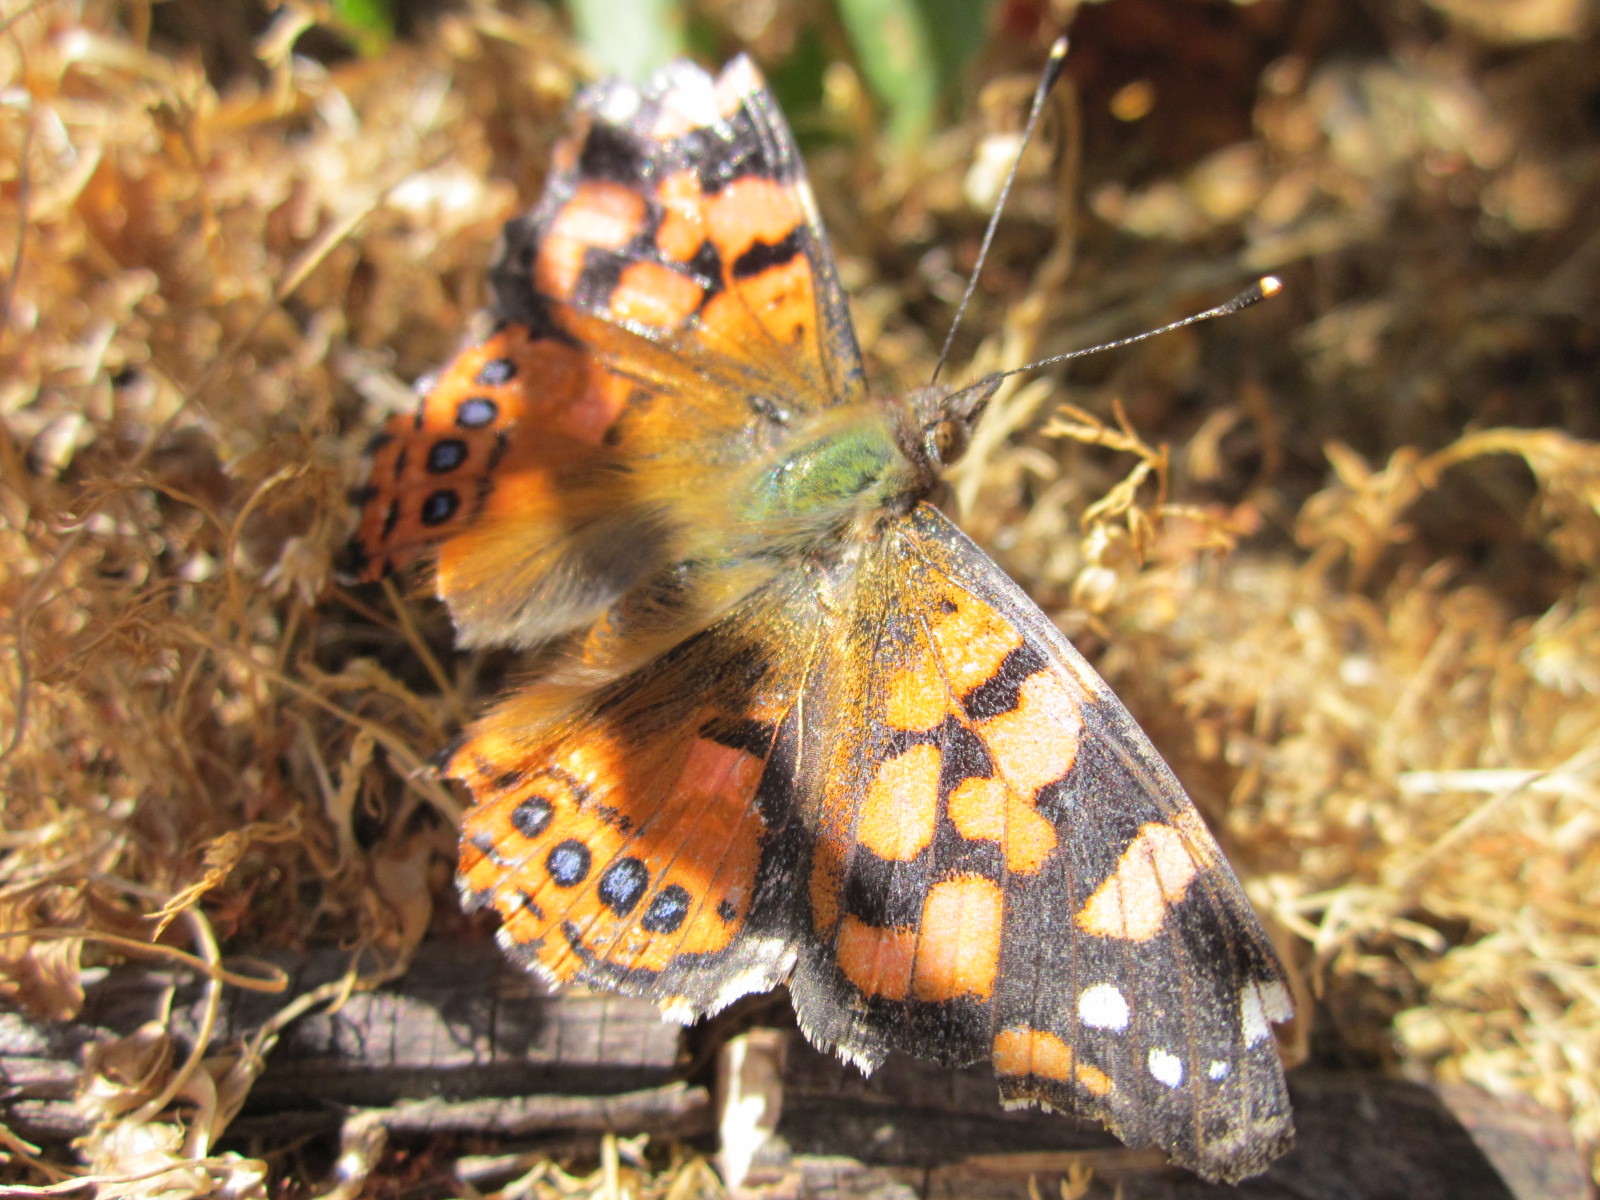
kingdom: Animalia
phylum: Arthropoda
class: Insecta
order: Lepidoptera
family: Nymphalidae
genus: Vanessa
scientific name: Vanessa carye
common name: Subtropical lady
